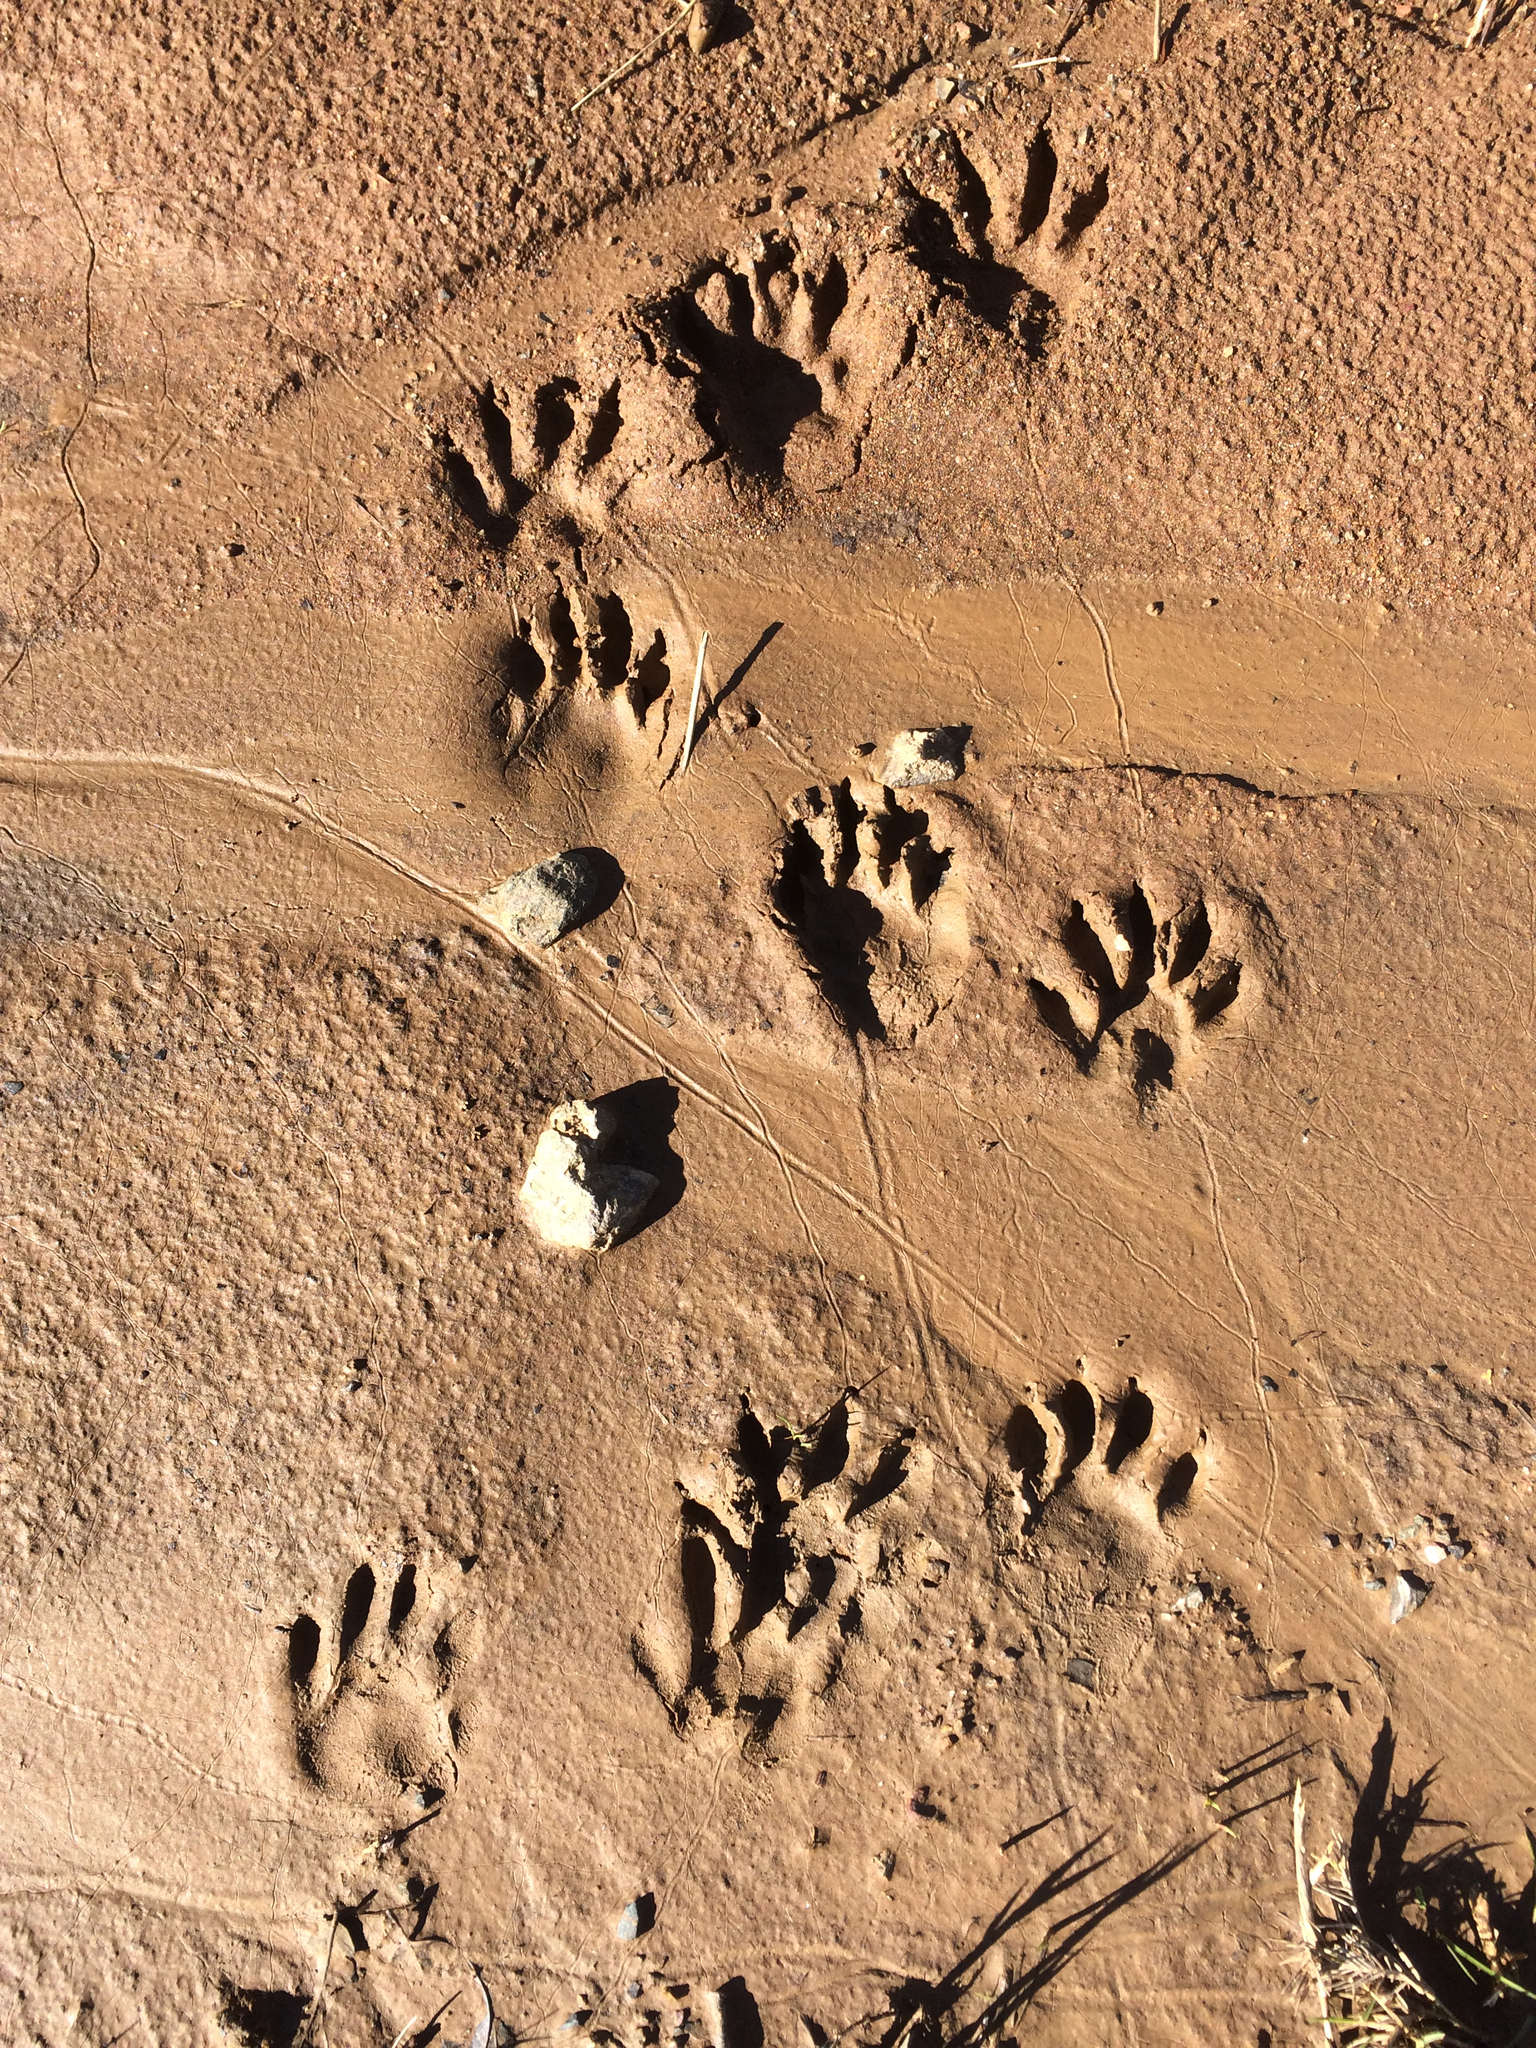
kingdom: Animalia
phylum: Chordata
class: Mammalia
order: Carnivora
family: Procyonidae
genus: Procyon
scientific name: Procyon lotor
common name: Raccoon
